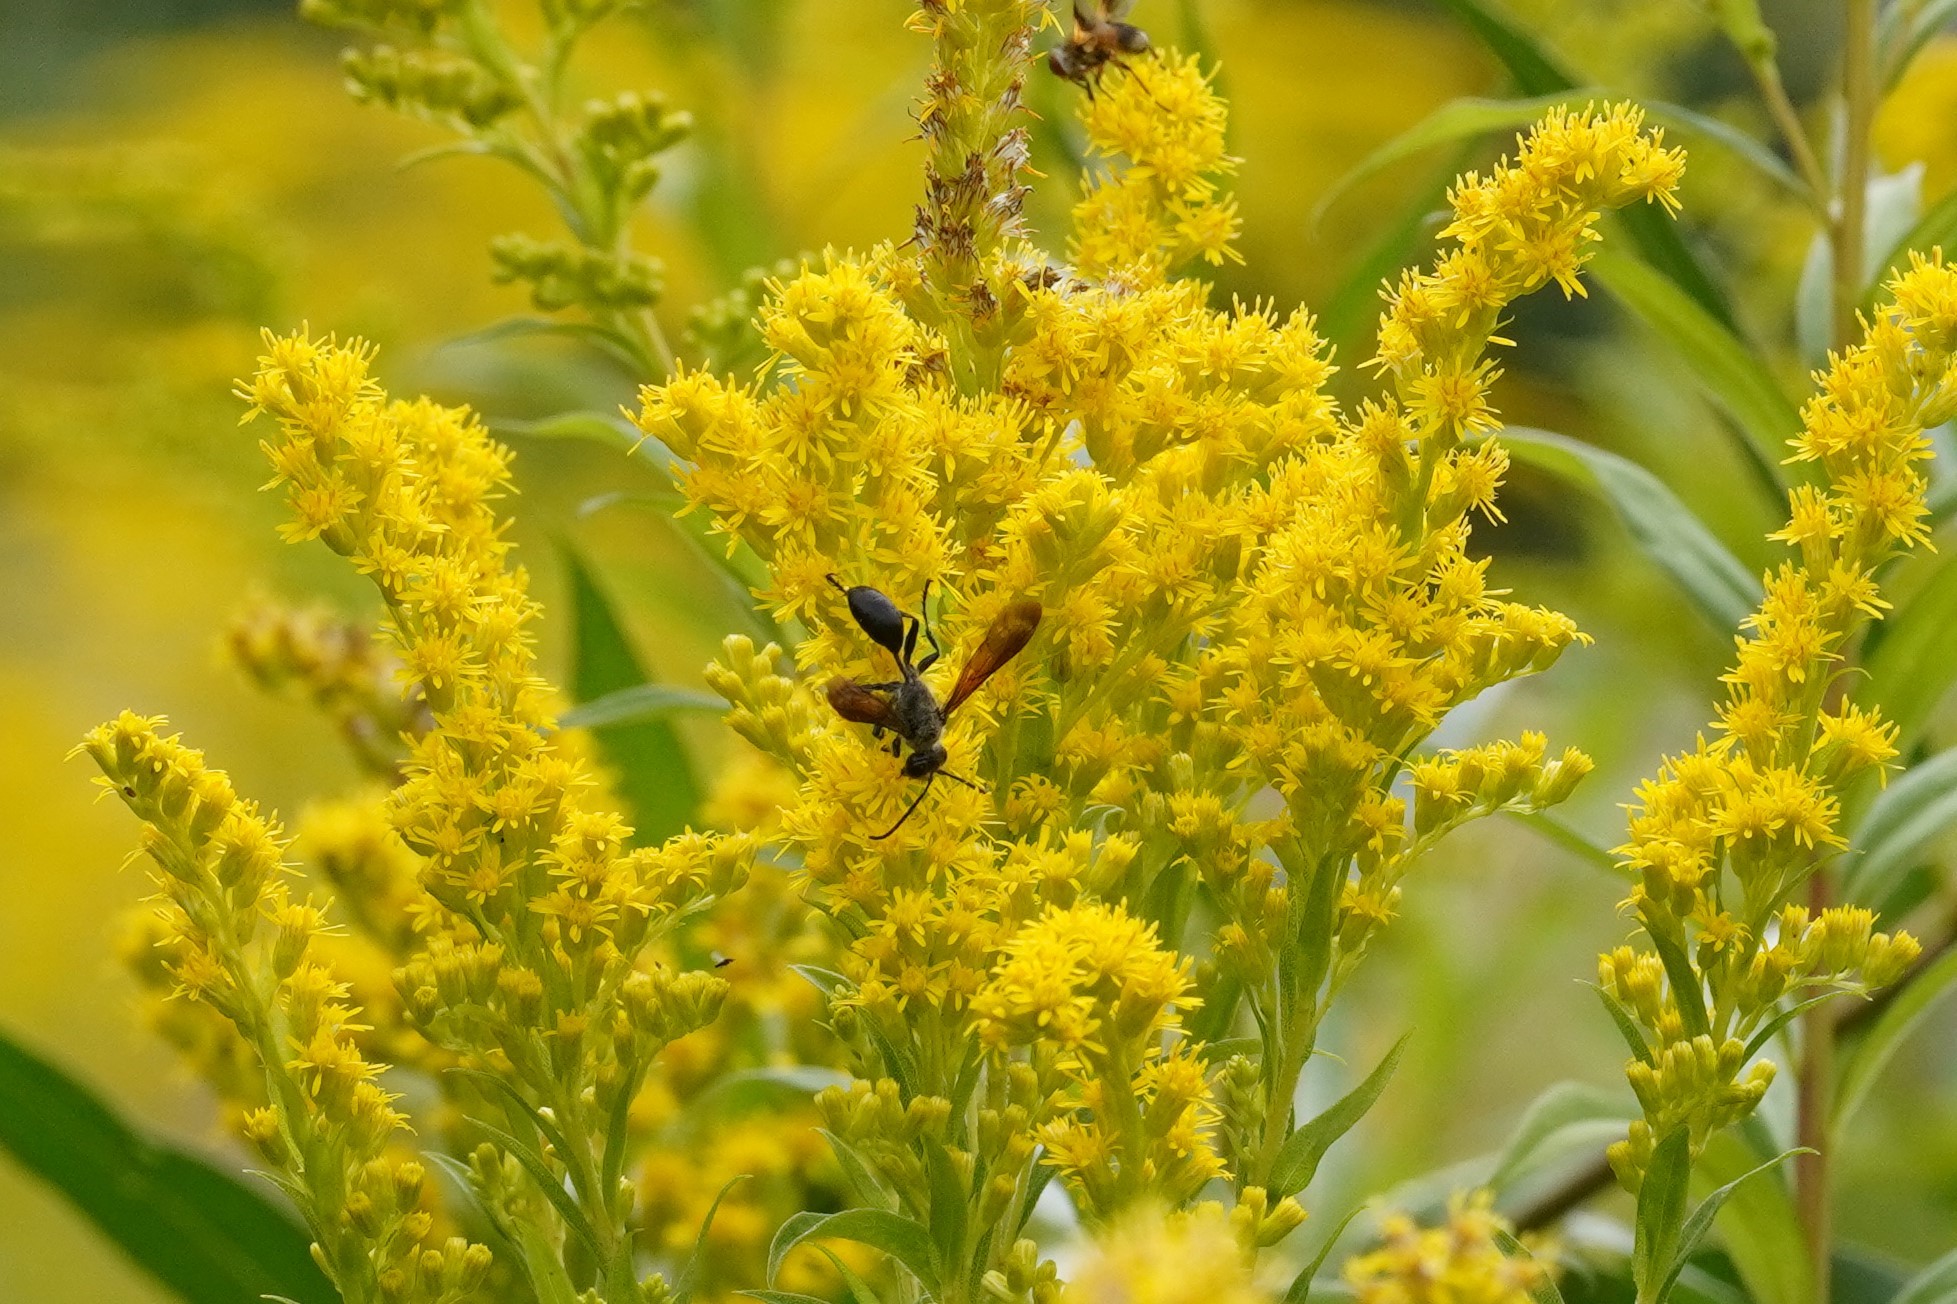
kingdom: Animalia
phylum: Arthropoda
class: Insecta
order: Hymenoptera
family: Sphecidae
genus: Isodontia
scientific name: Isodontia mexicana
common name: Mud dauber
